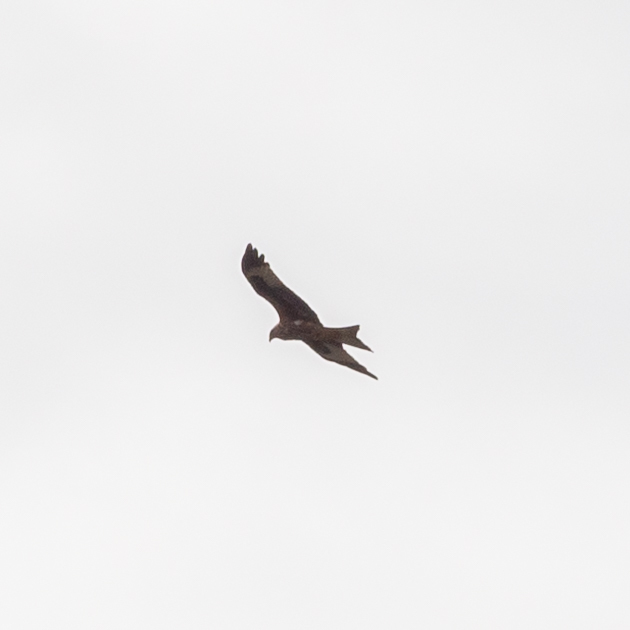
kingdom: Animalia
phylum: Chordata
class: Aves
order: Accipitriformes
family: Accipitridae
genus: Milvus
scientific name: Milvus milvus
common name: Red kite
